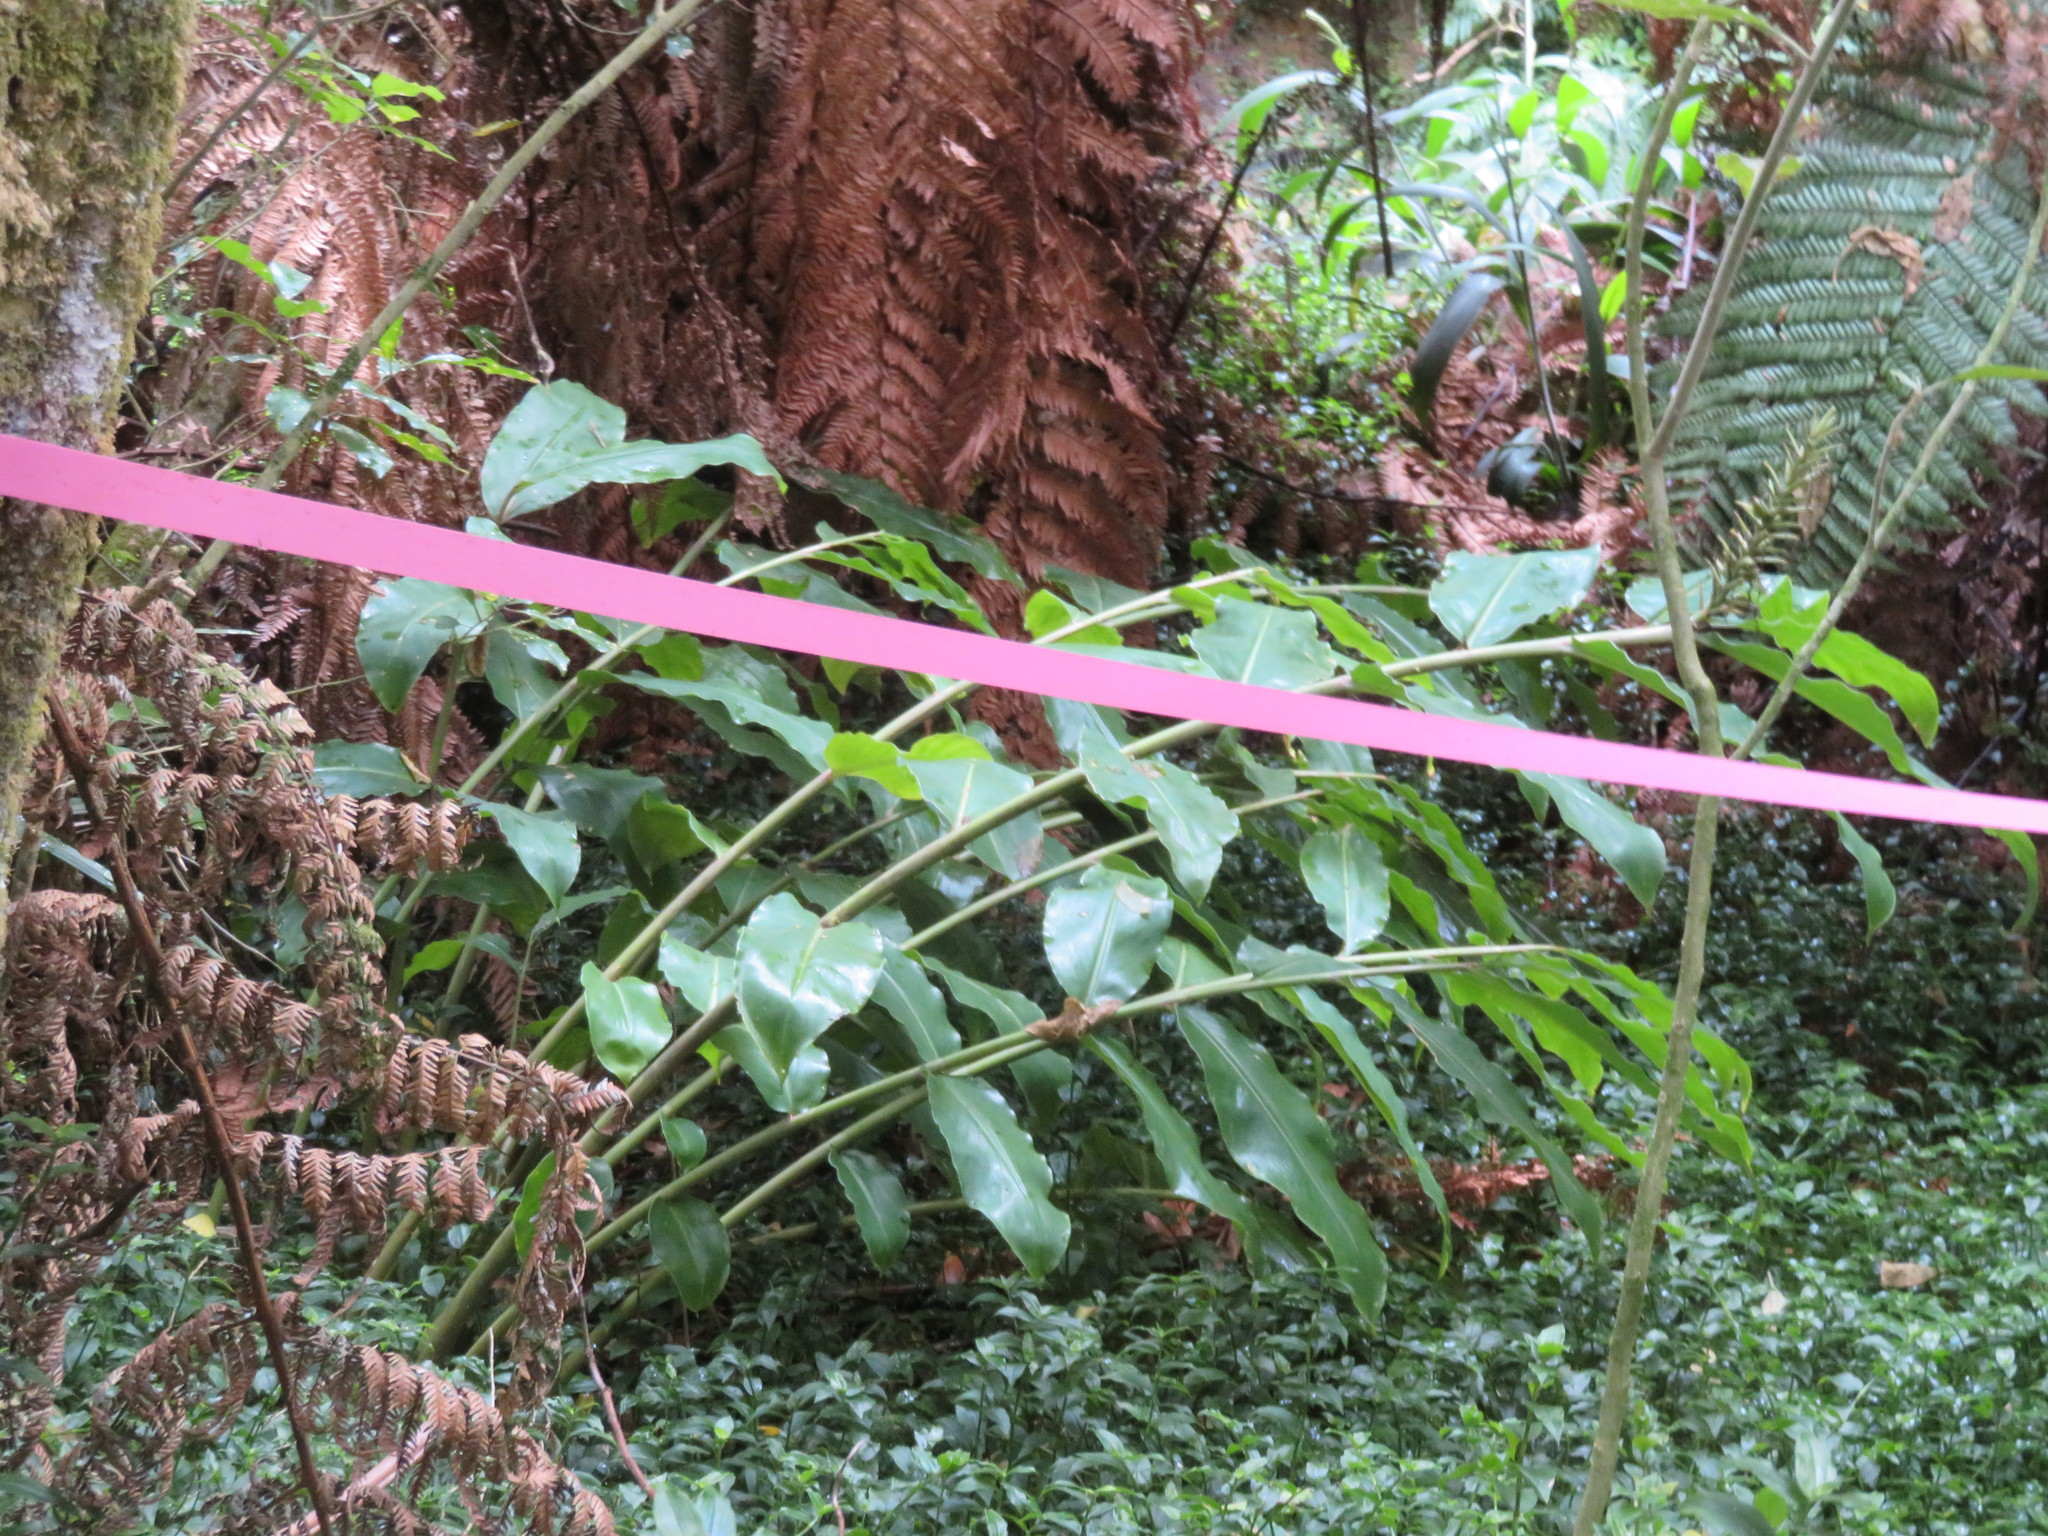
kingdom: Plantae
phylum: Tracheophyta
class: Liliopsida
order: Zingiberales
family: Zingiberaceae
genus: Hedychium
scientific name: Hedychium gardnerianum
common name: Himalayan ginger
